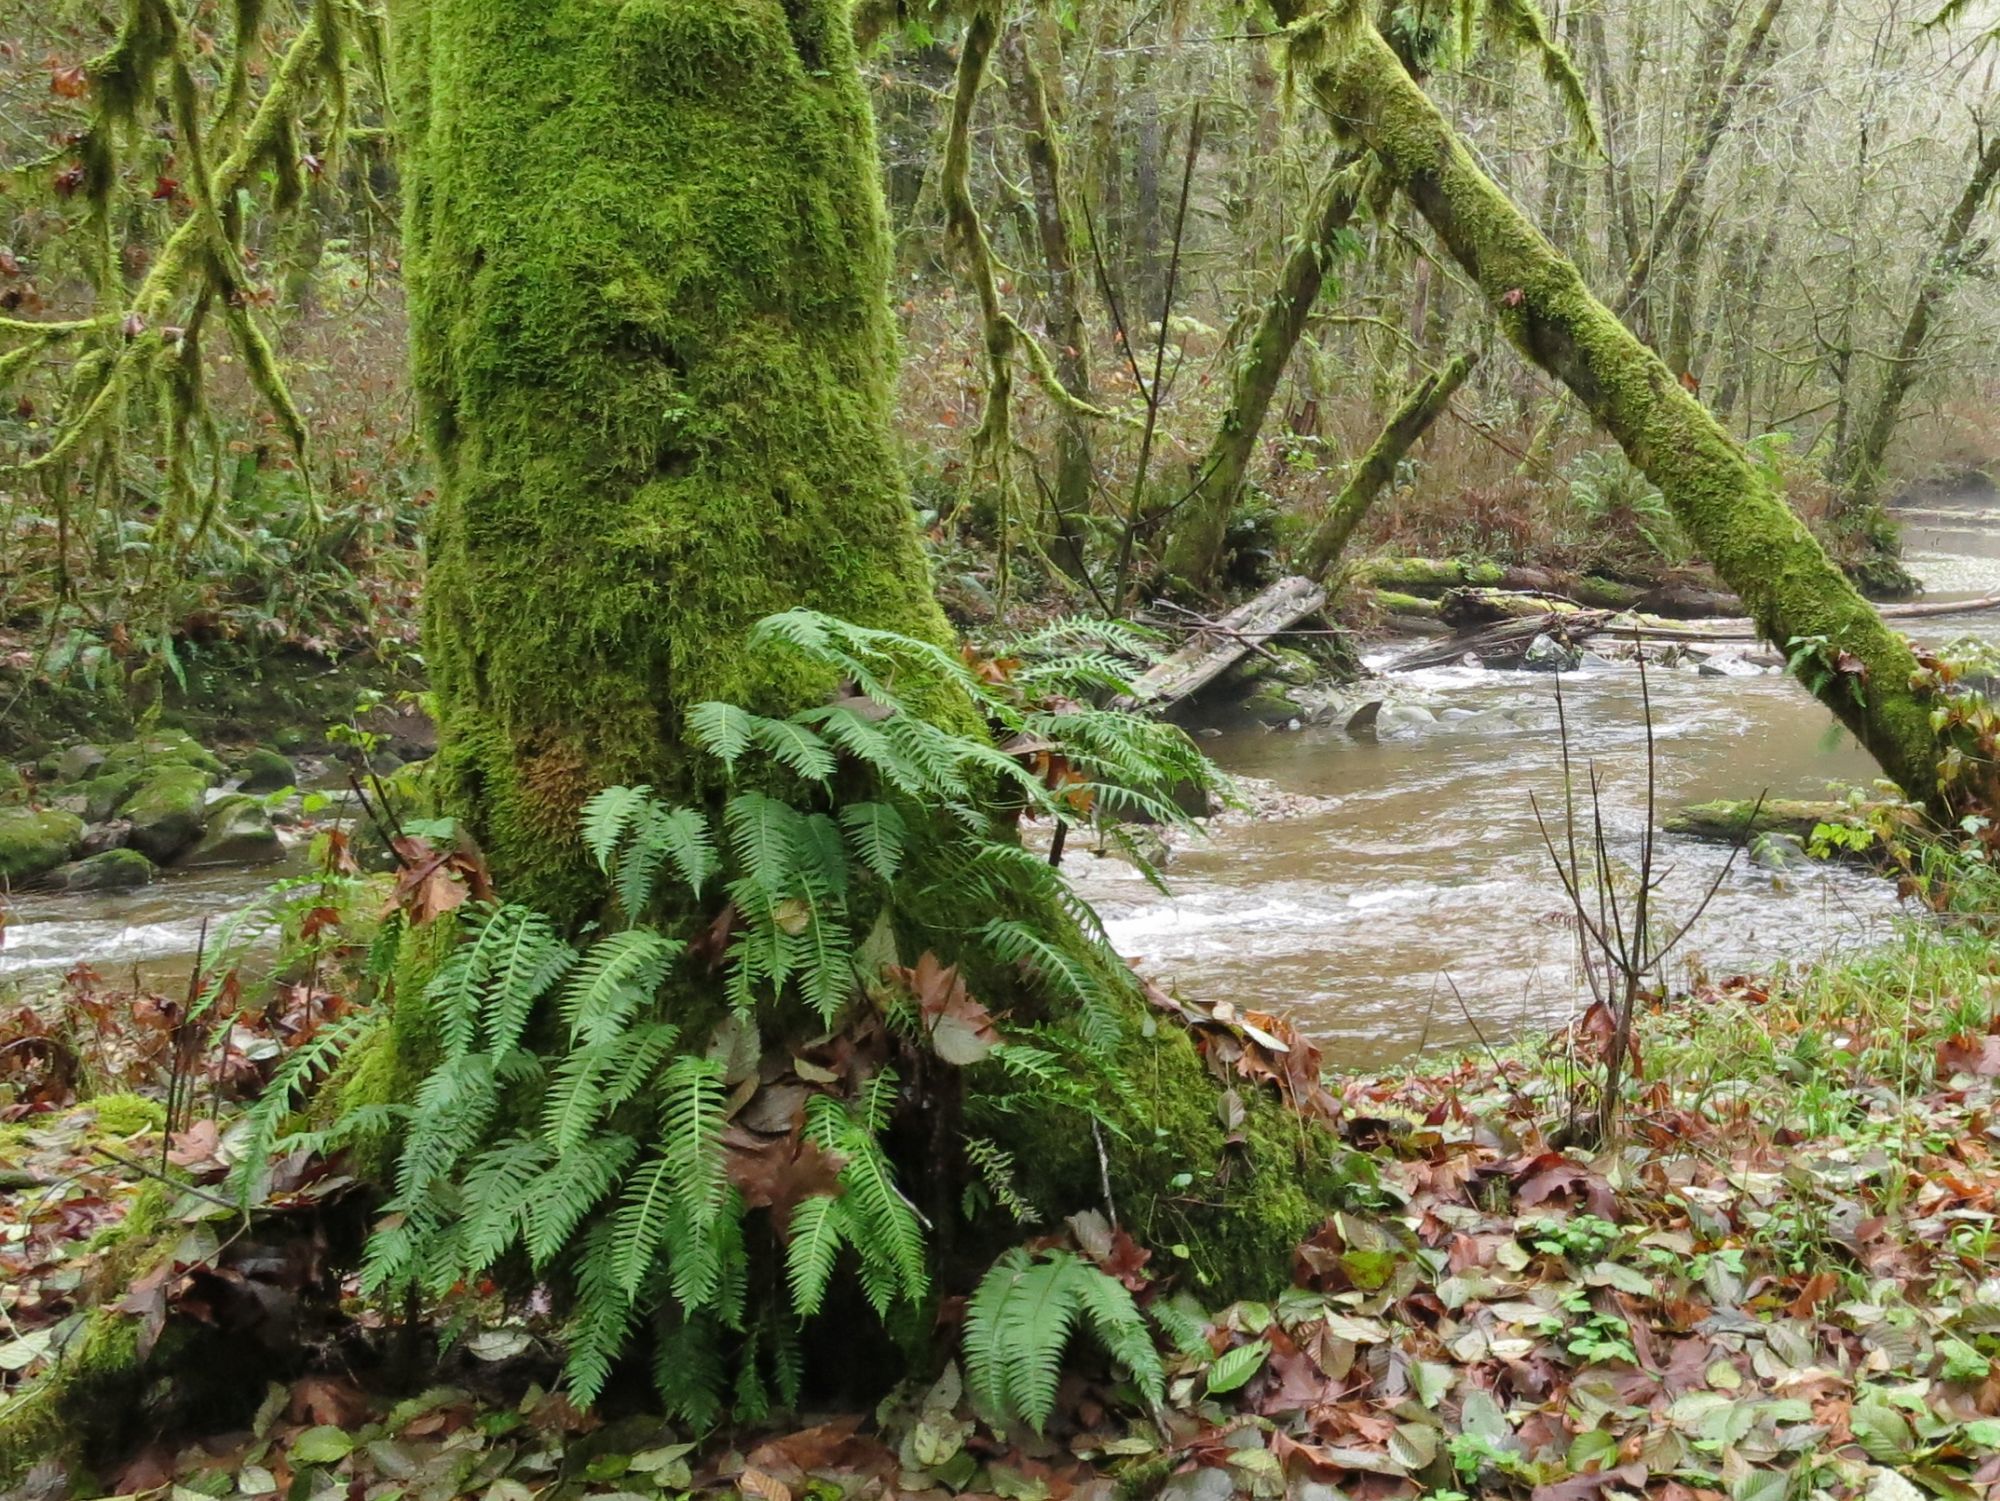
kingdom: Plantae
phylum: Tracheophyta
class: Polypodiopsida
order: Polypodiales
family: Polypodiaceae
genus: Polypodium
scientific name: Polypodium glycyrrhiza
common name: Licorice fern
